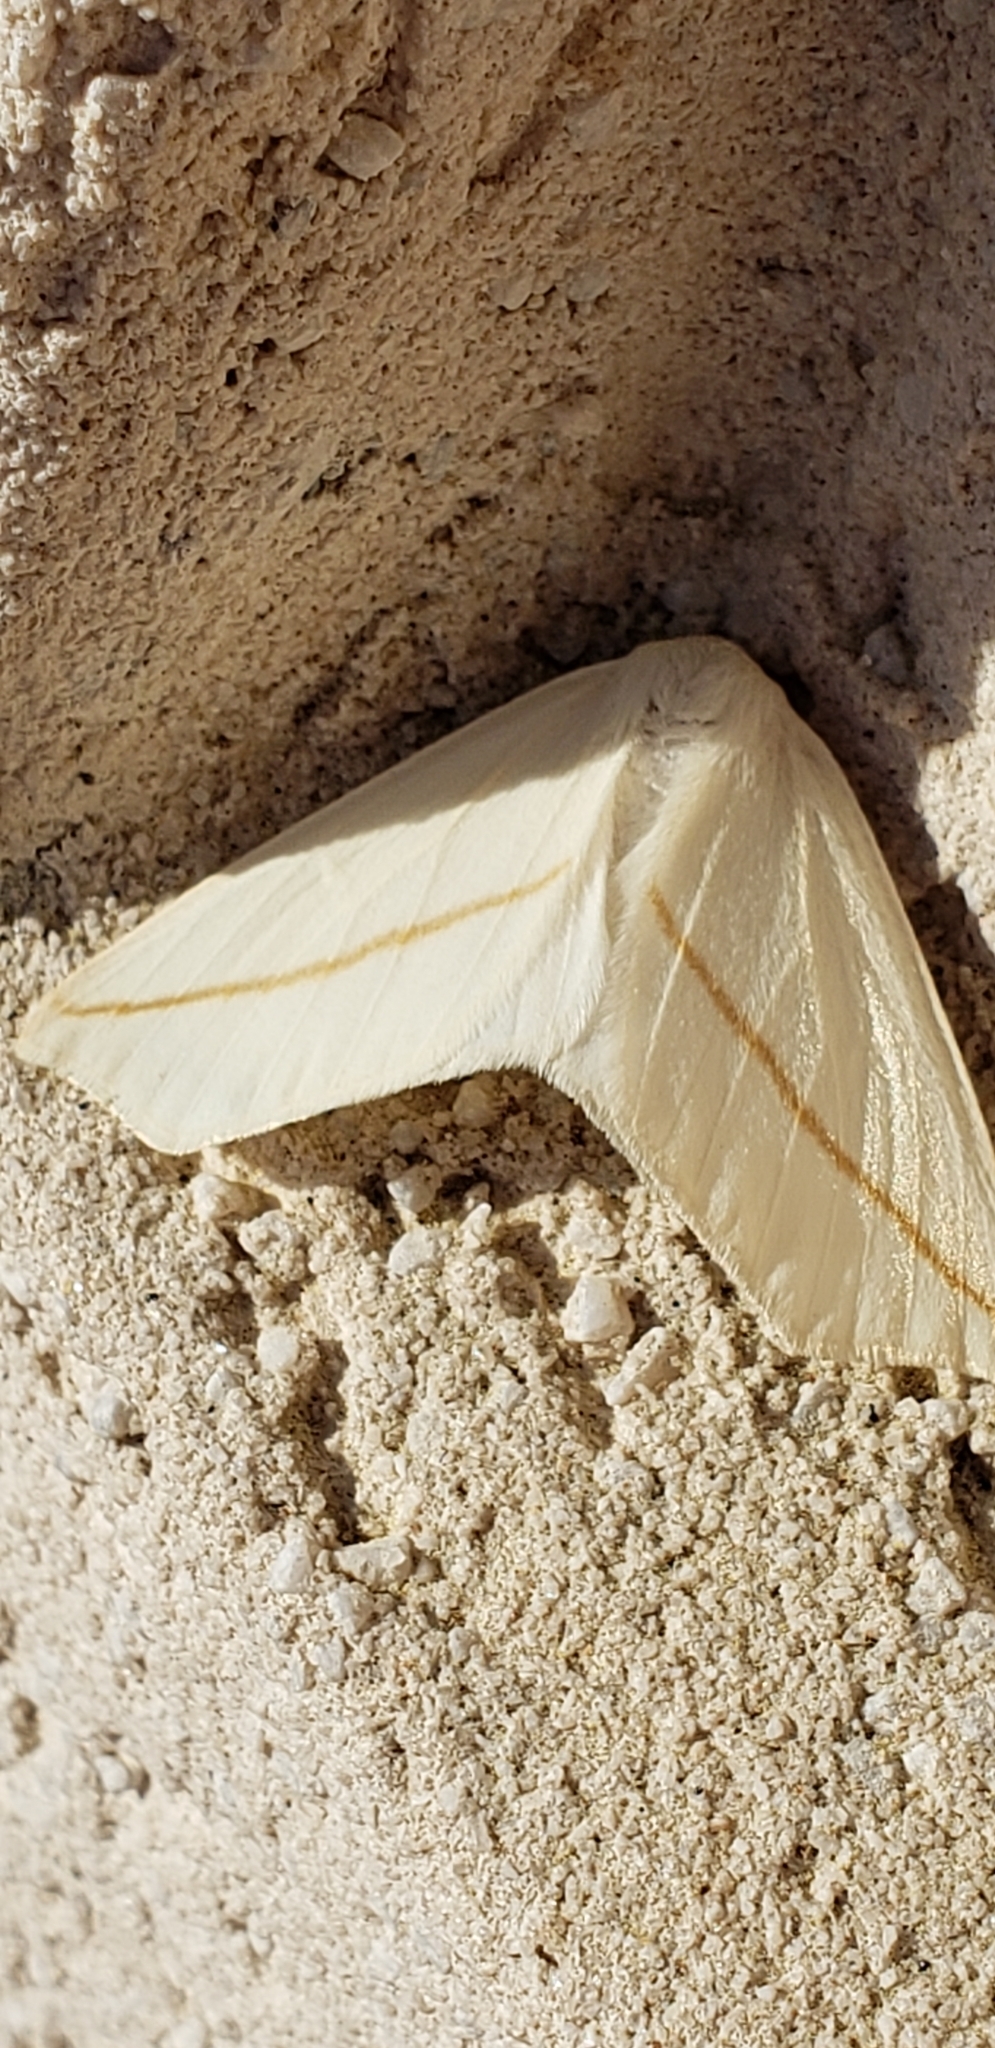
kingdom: Animalia
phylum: Arthropoda
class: Insecta
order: Lepidoptera
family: Geometridae
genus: Tetracis
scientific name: Tetracis cachexiata
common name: White slant-line
